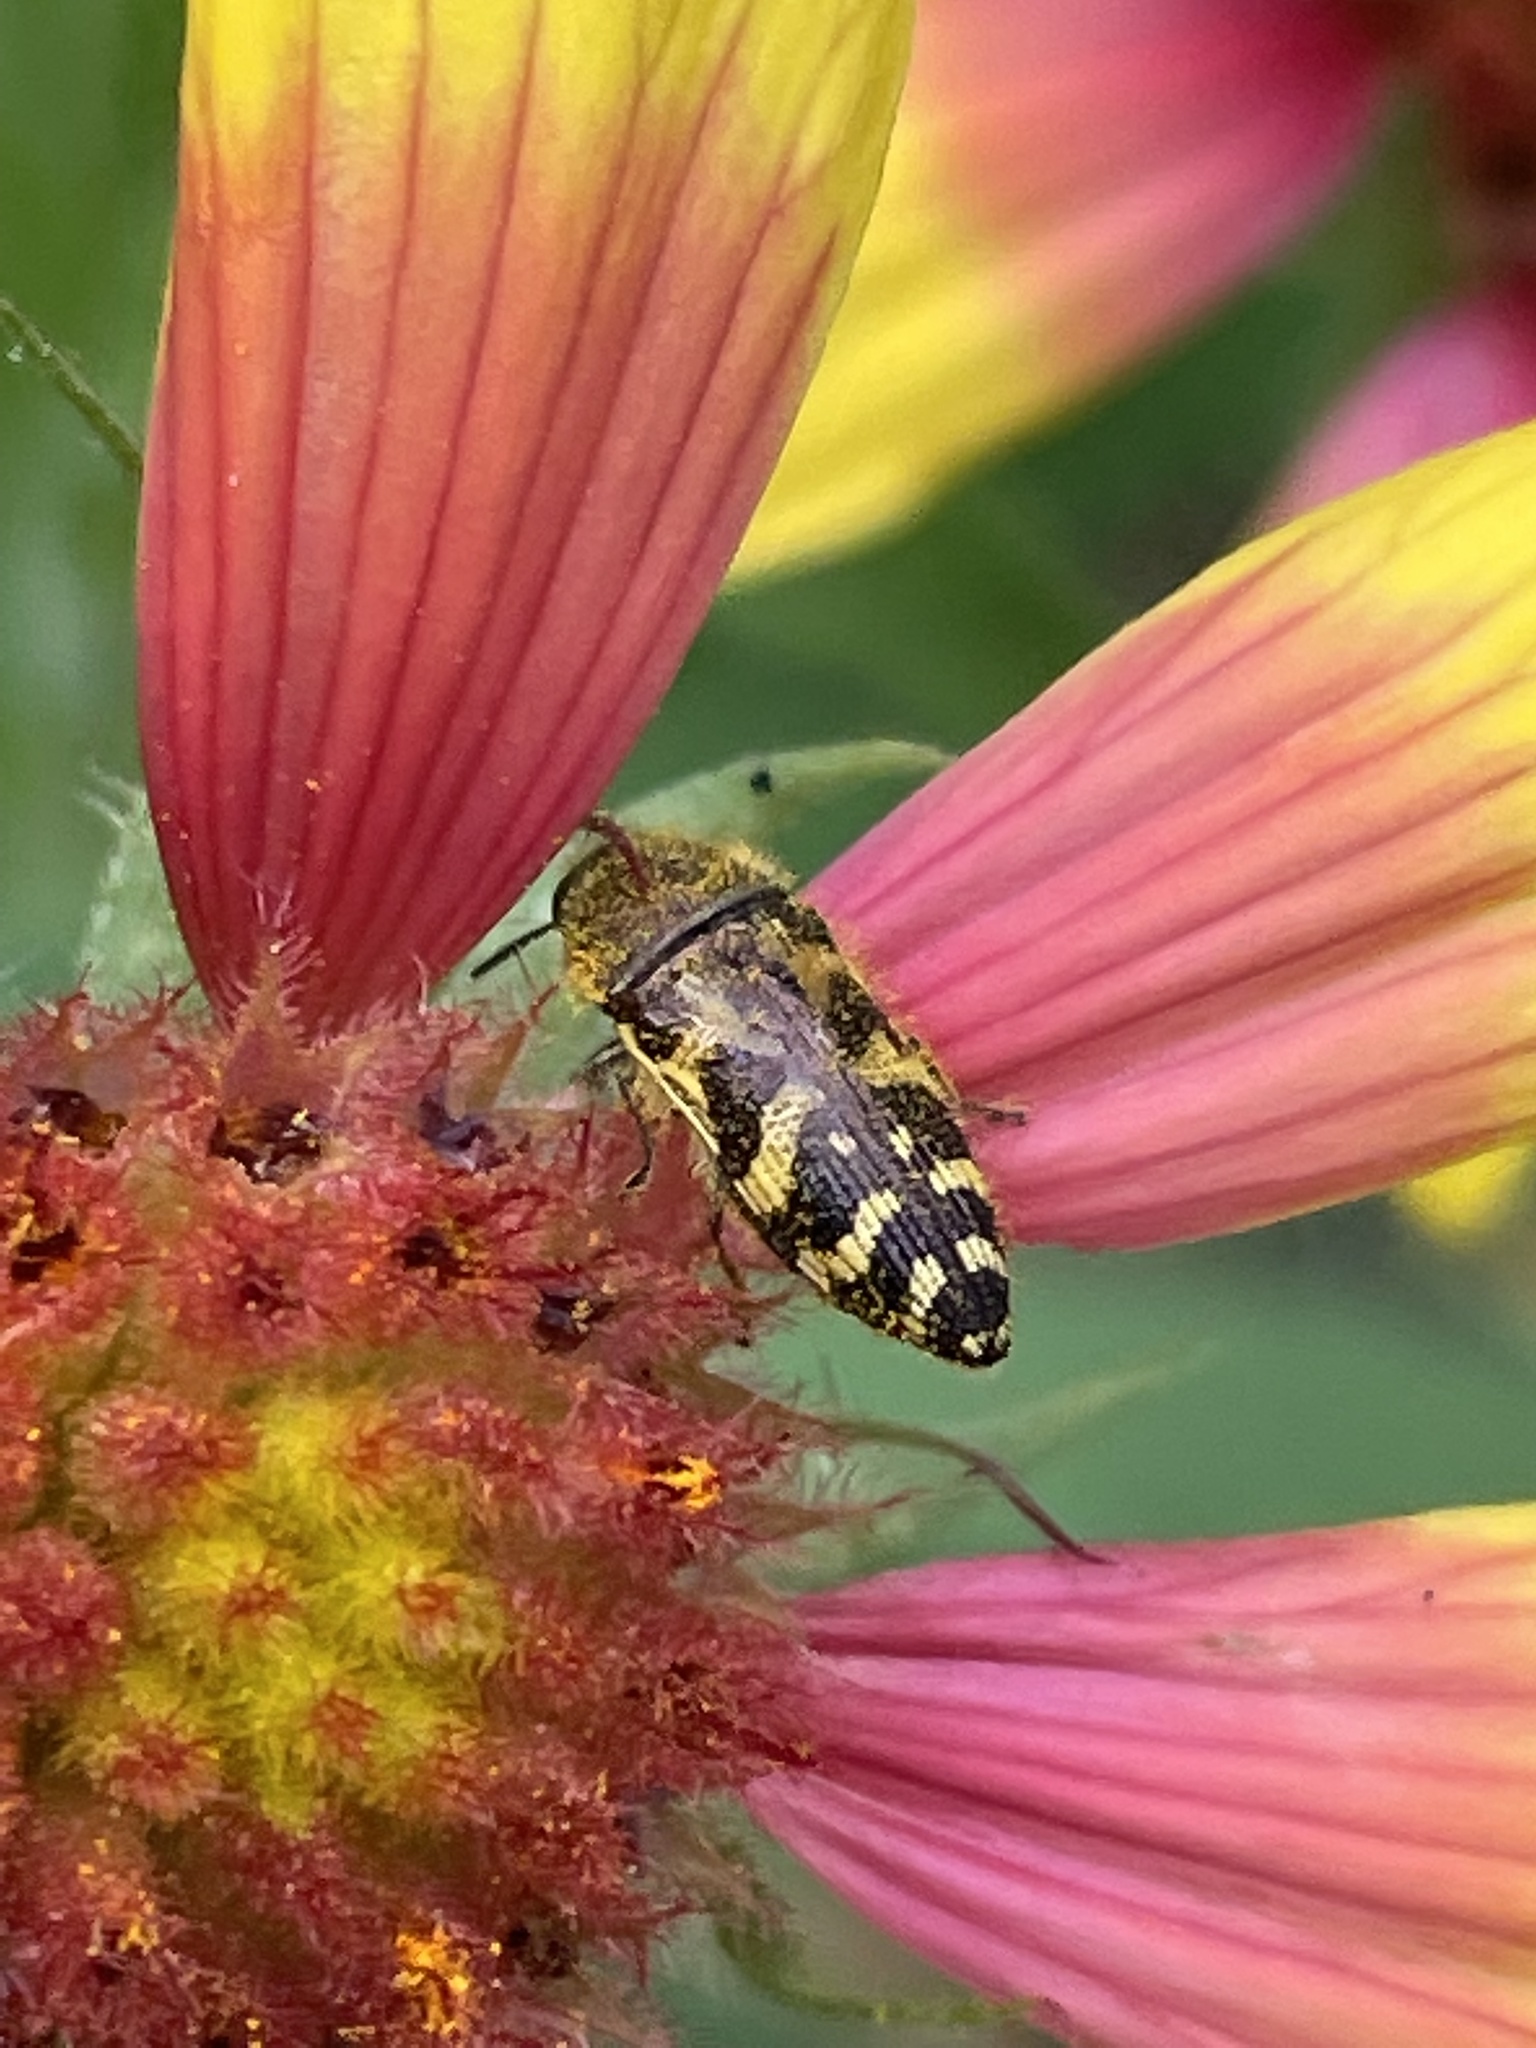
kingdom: Animalia
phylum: Arthropoda
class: Insecta
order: Coleoptera
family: Buprestidae
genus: Acmaeodera
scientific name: Acmaeodera mixta
